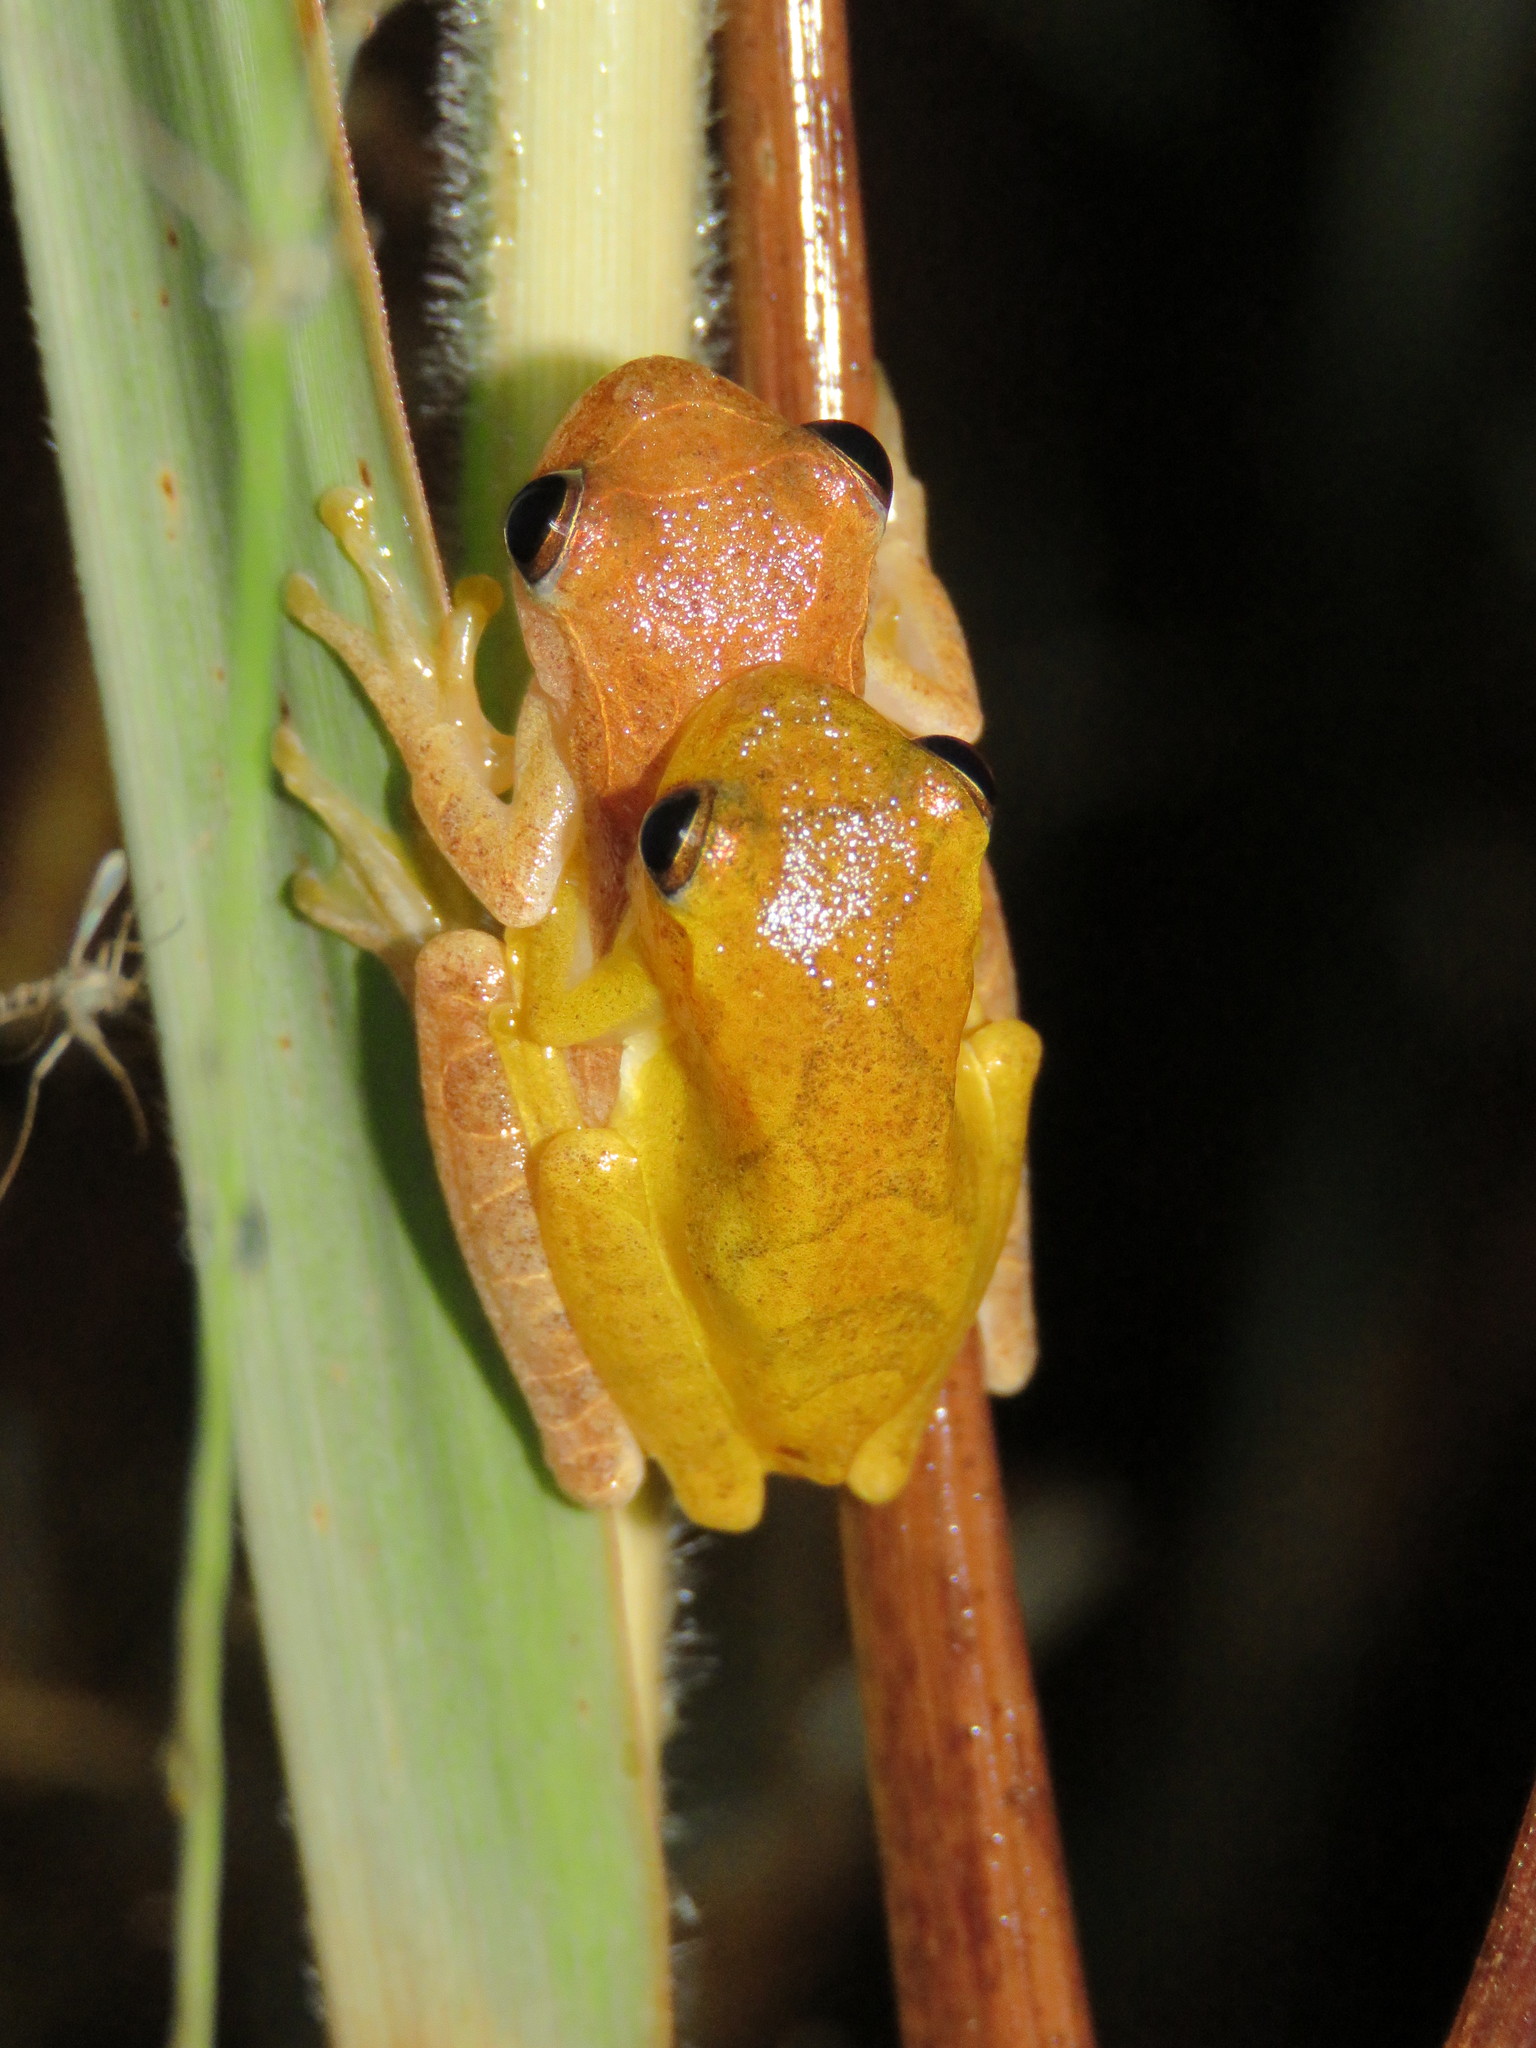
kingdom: Animalia
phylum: Chordata
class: Amphibia
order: Anura
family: Hylidae
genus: Dendropsophus
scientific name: Dendropsophus minutus
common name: Lesser treefrog
